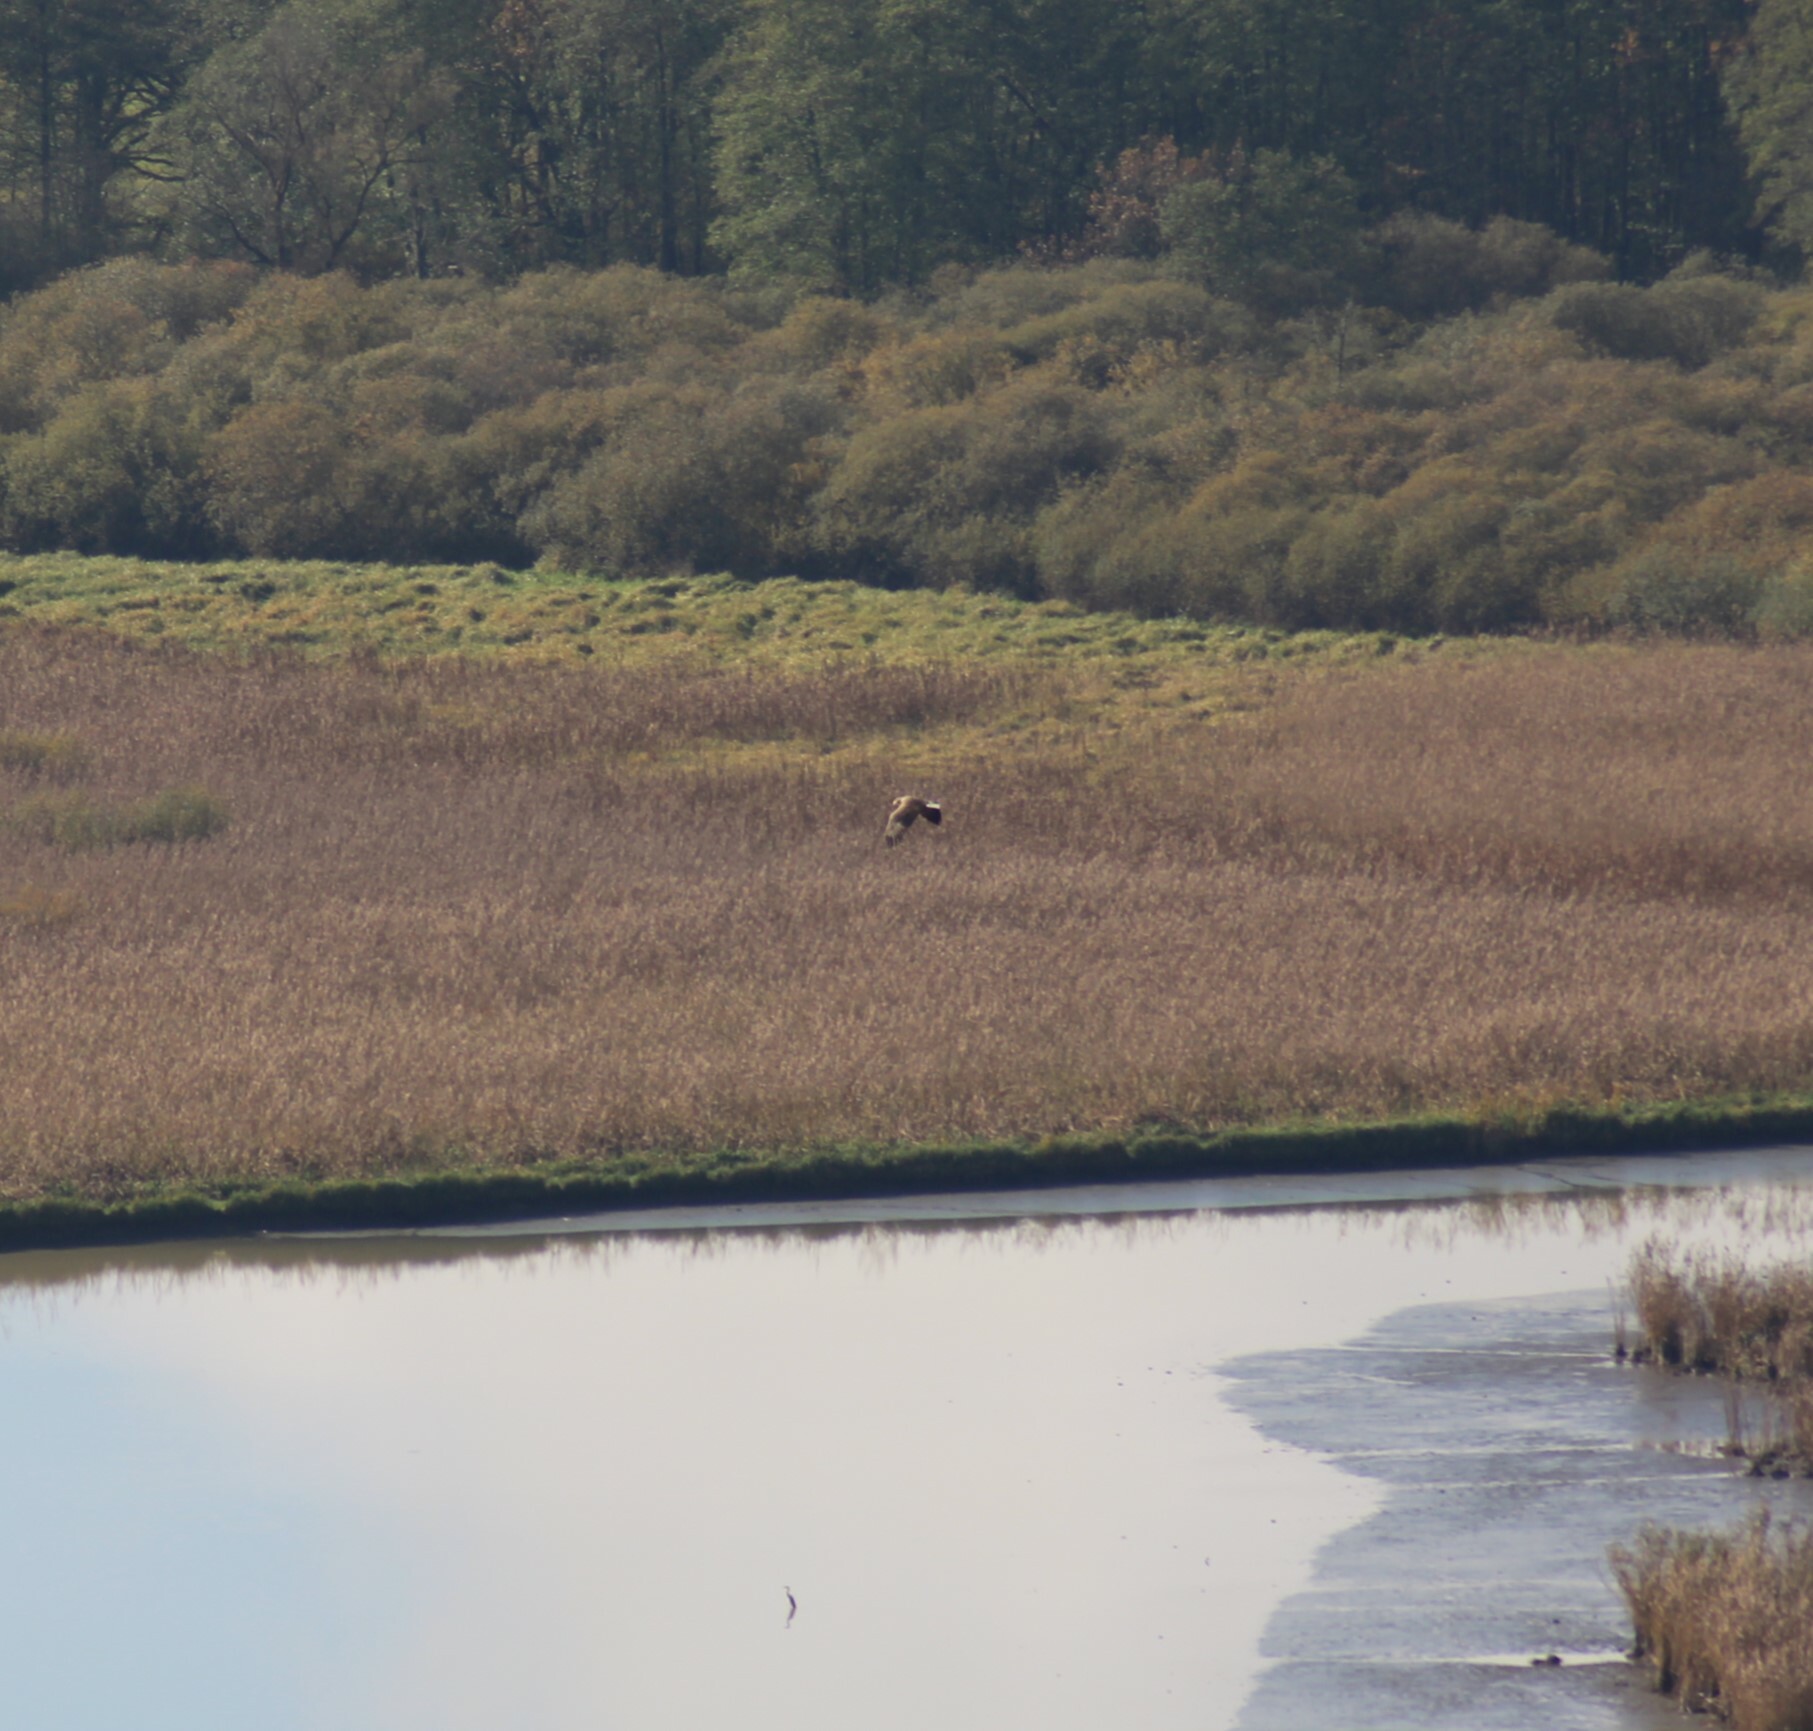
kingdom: Animalia
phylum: Chordata
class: Aves
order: Accipitriformes
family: Accipitridae
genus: Haliaeetus
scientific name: Haliaeetus albicilla
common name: White-tailed eagle
